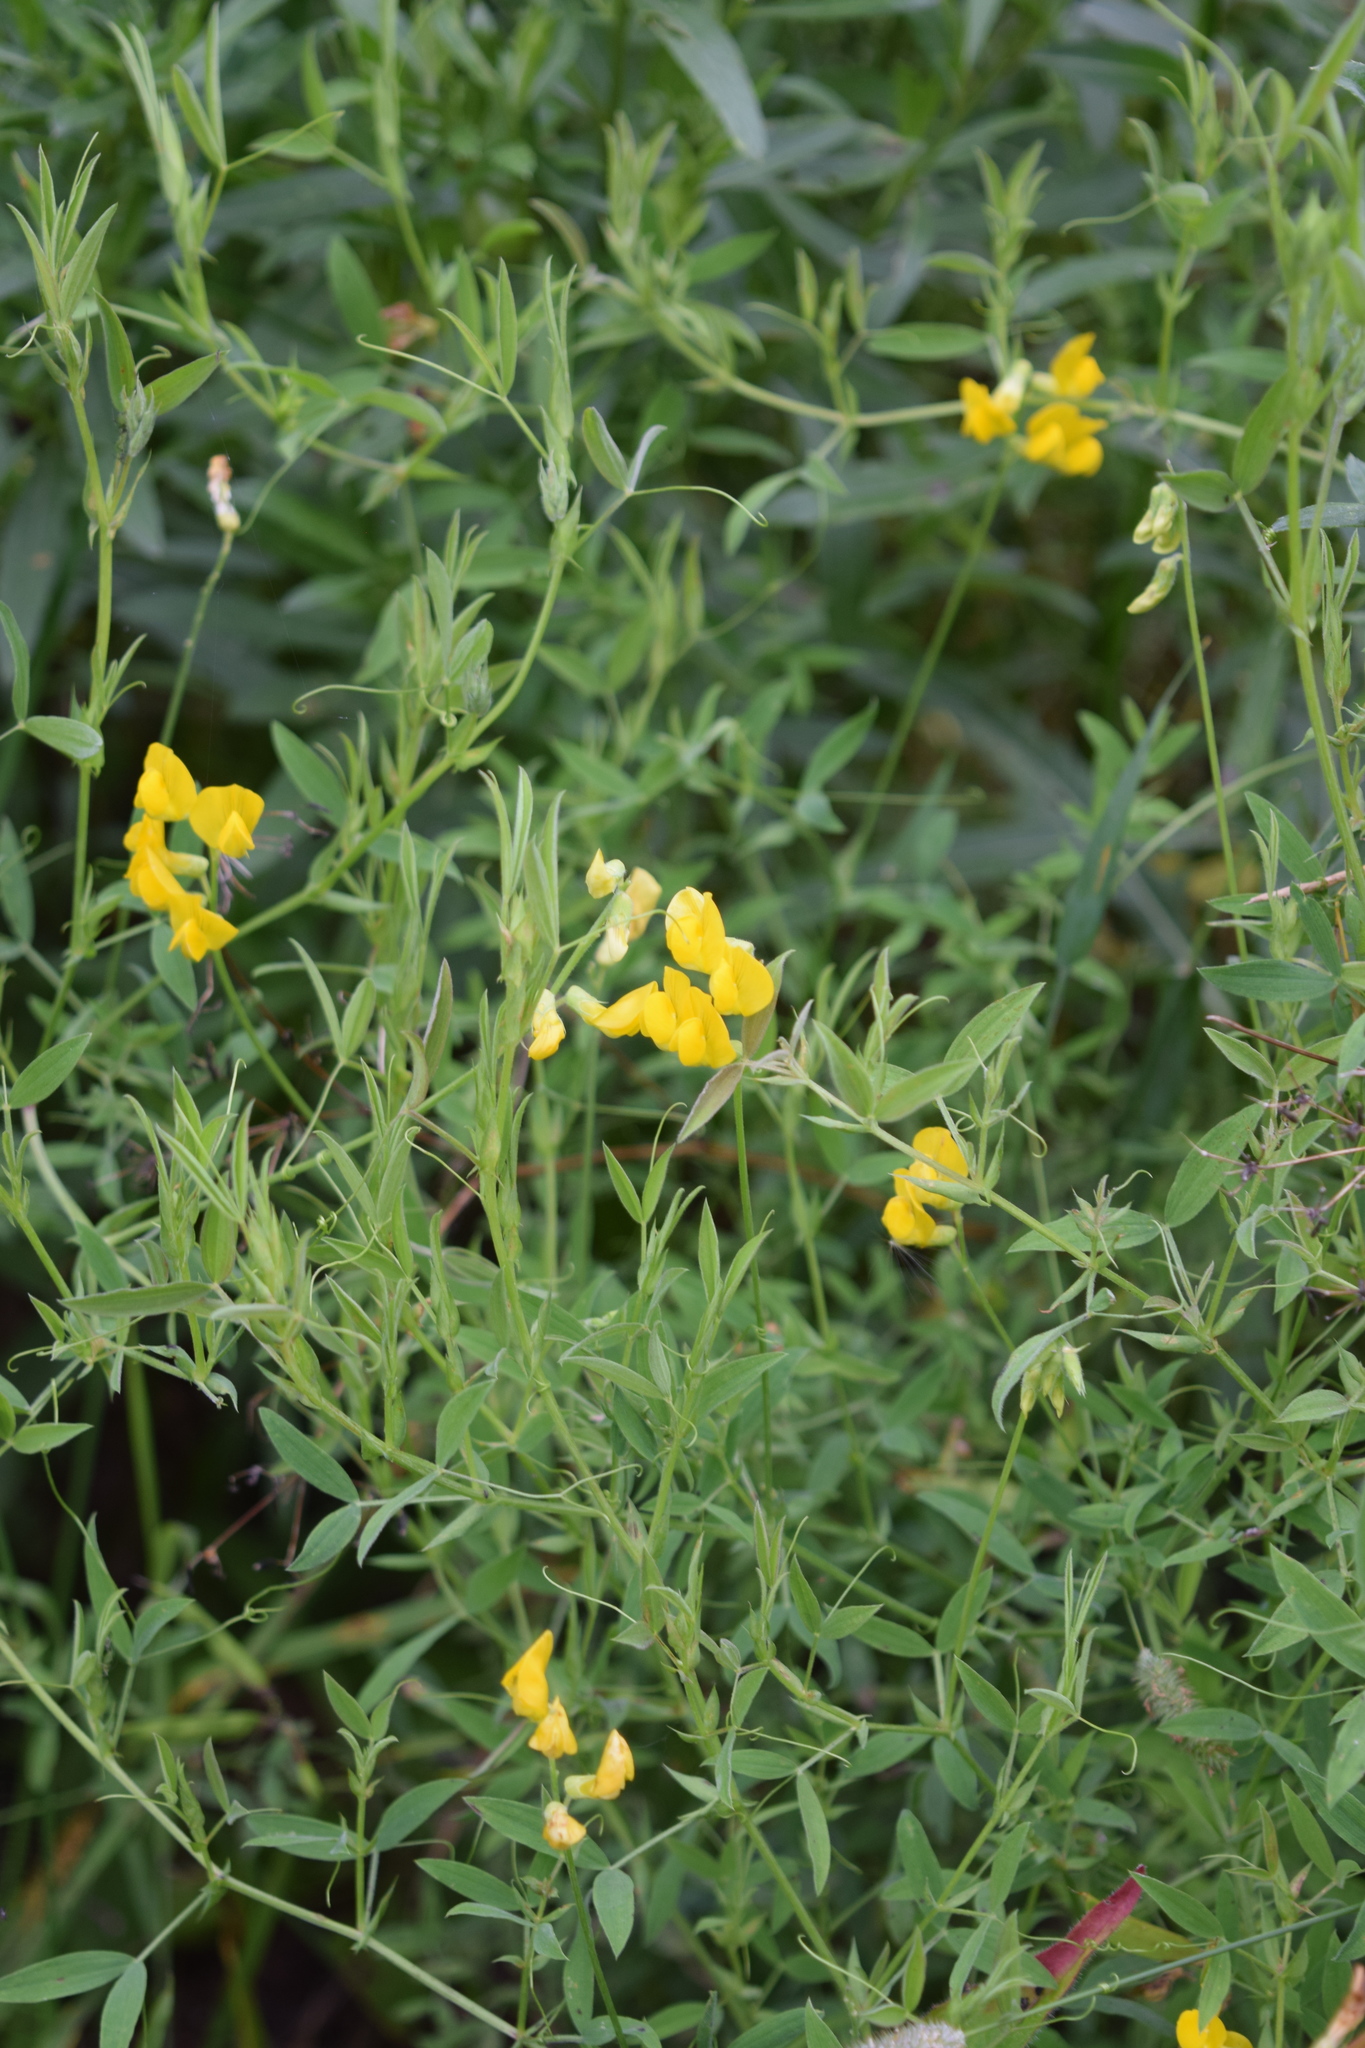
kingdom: Plantae
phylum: Tracheophyta
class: Magnoliopsida
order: Fabales
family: Fabaceae
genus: Lathyrus
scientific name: Lathyrus pratensis
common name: Meadow vetchling
